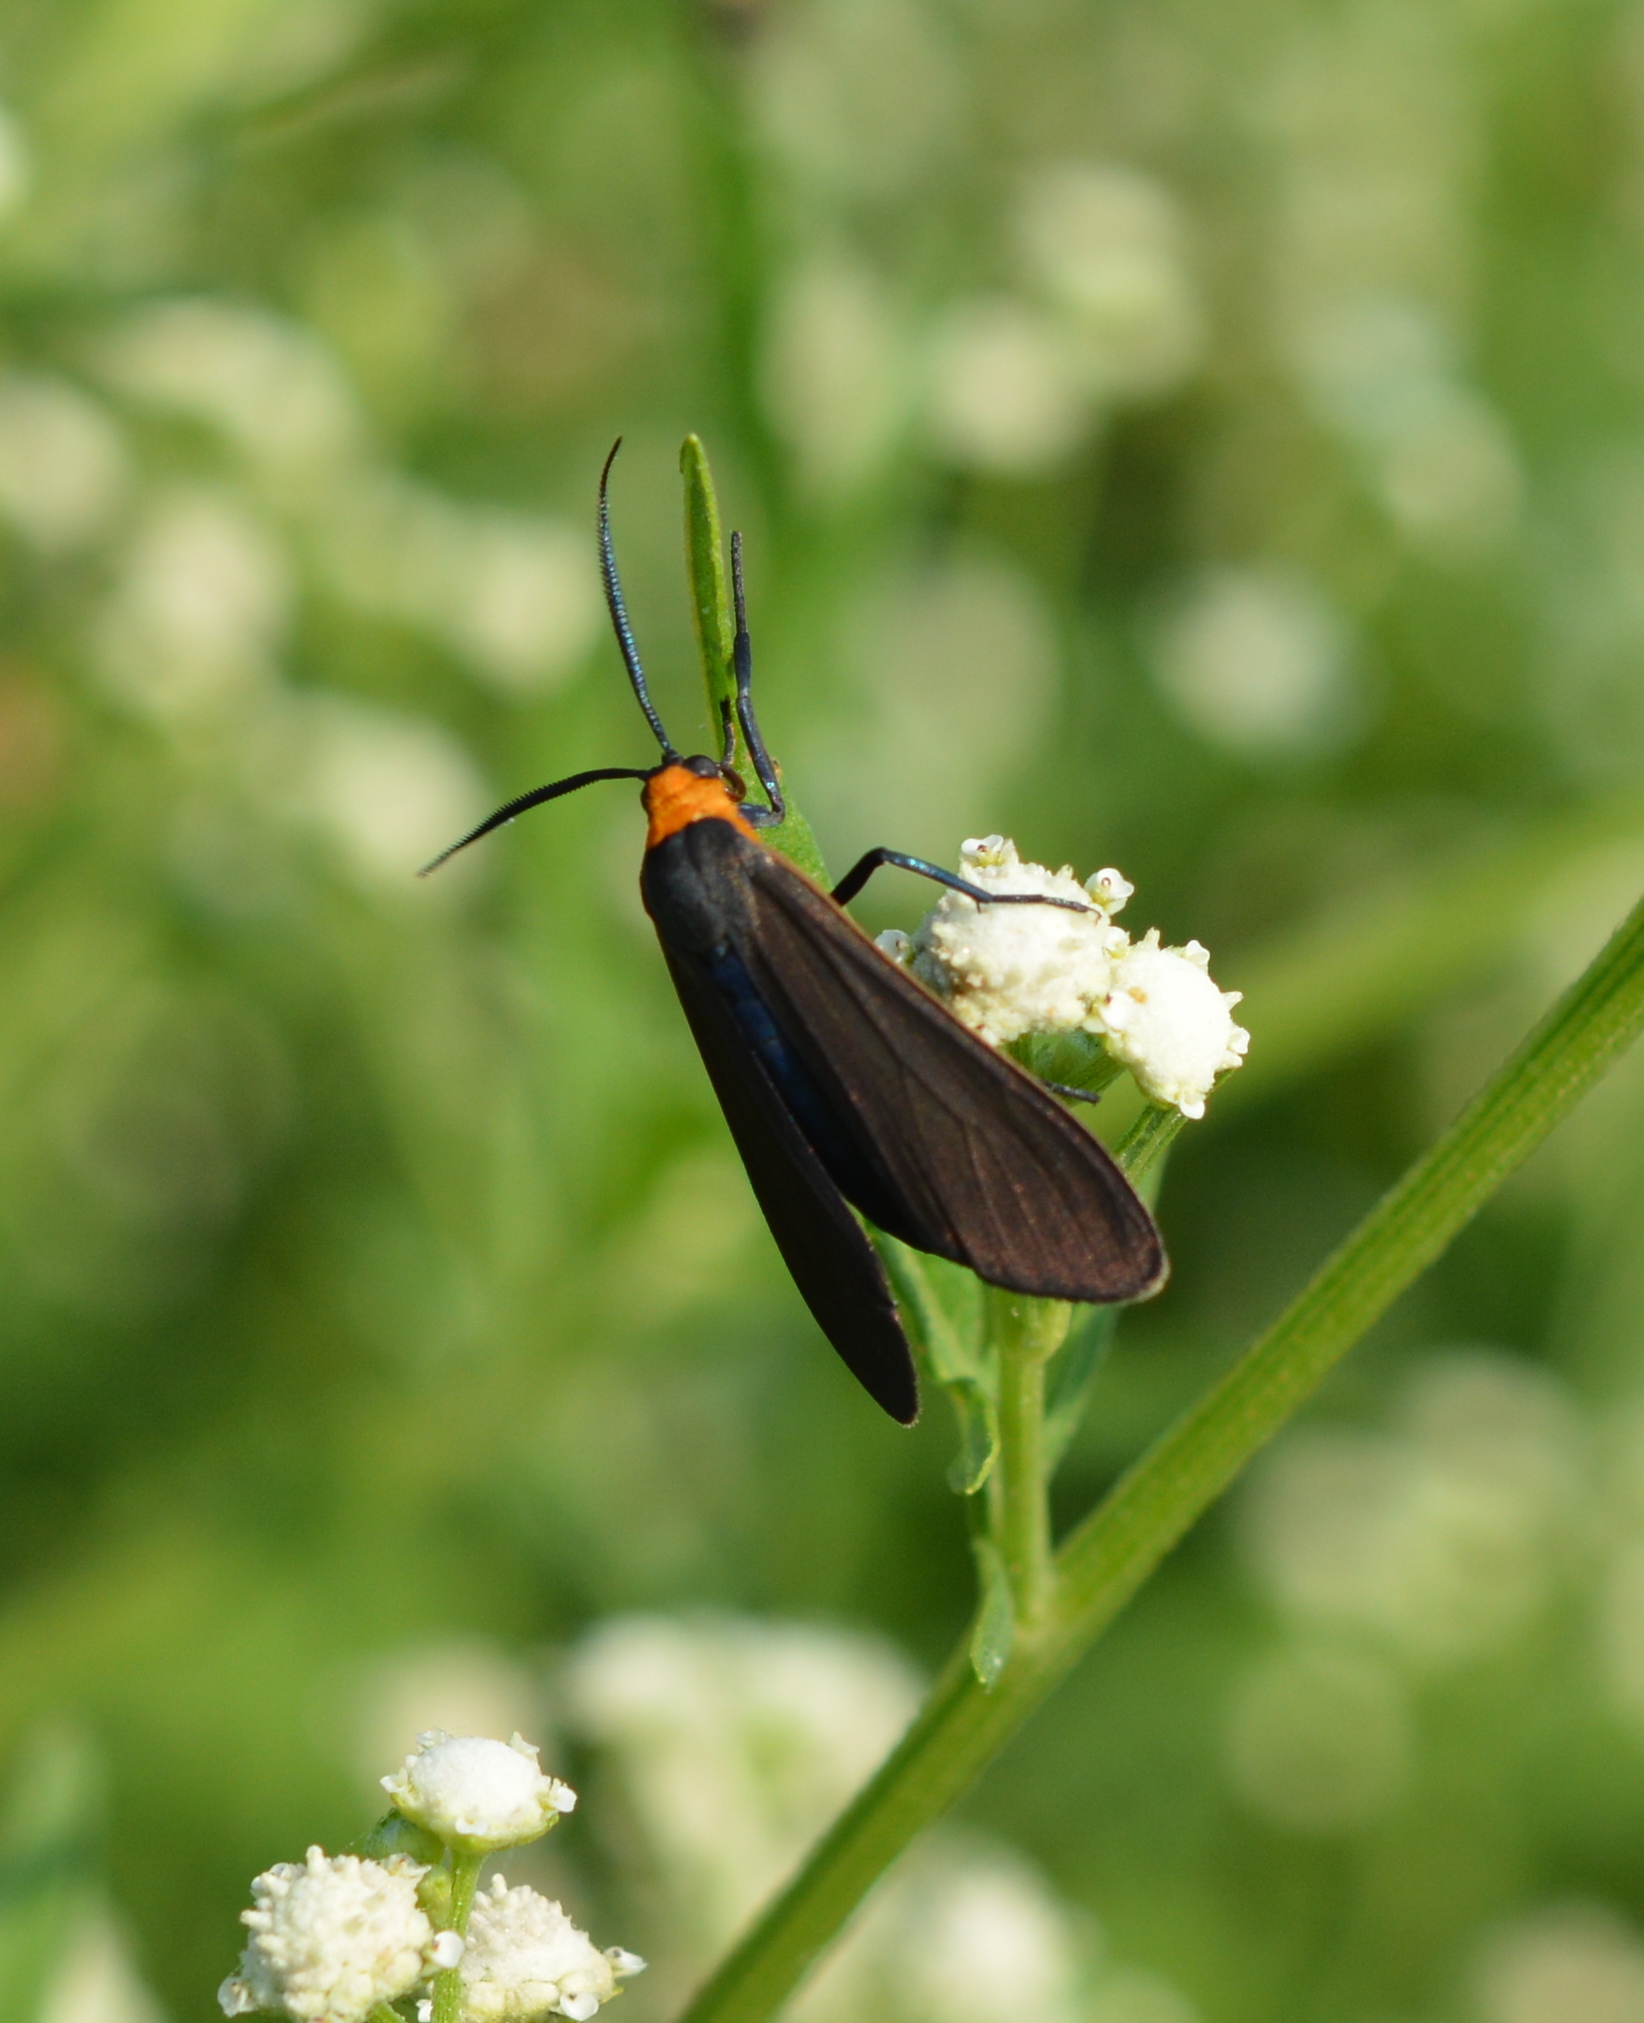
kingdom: Animalia
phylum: Arthropoda
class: Insecta
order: Lepidoptera
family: Erebidae
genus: Cisseps
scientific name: Cisseps fulvicollis
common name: Yellow-collared scape moth
